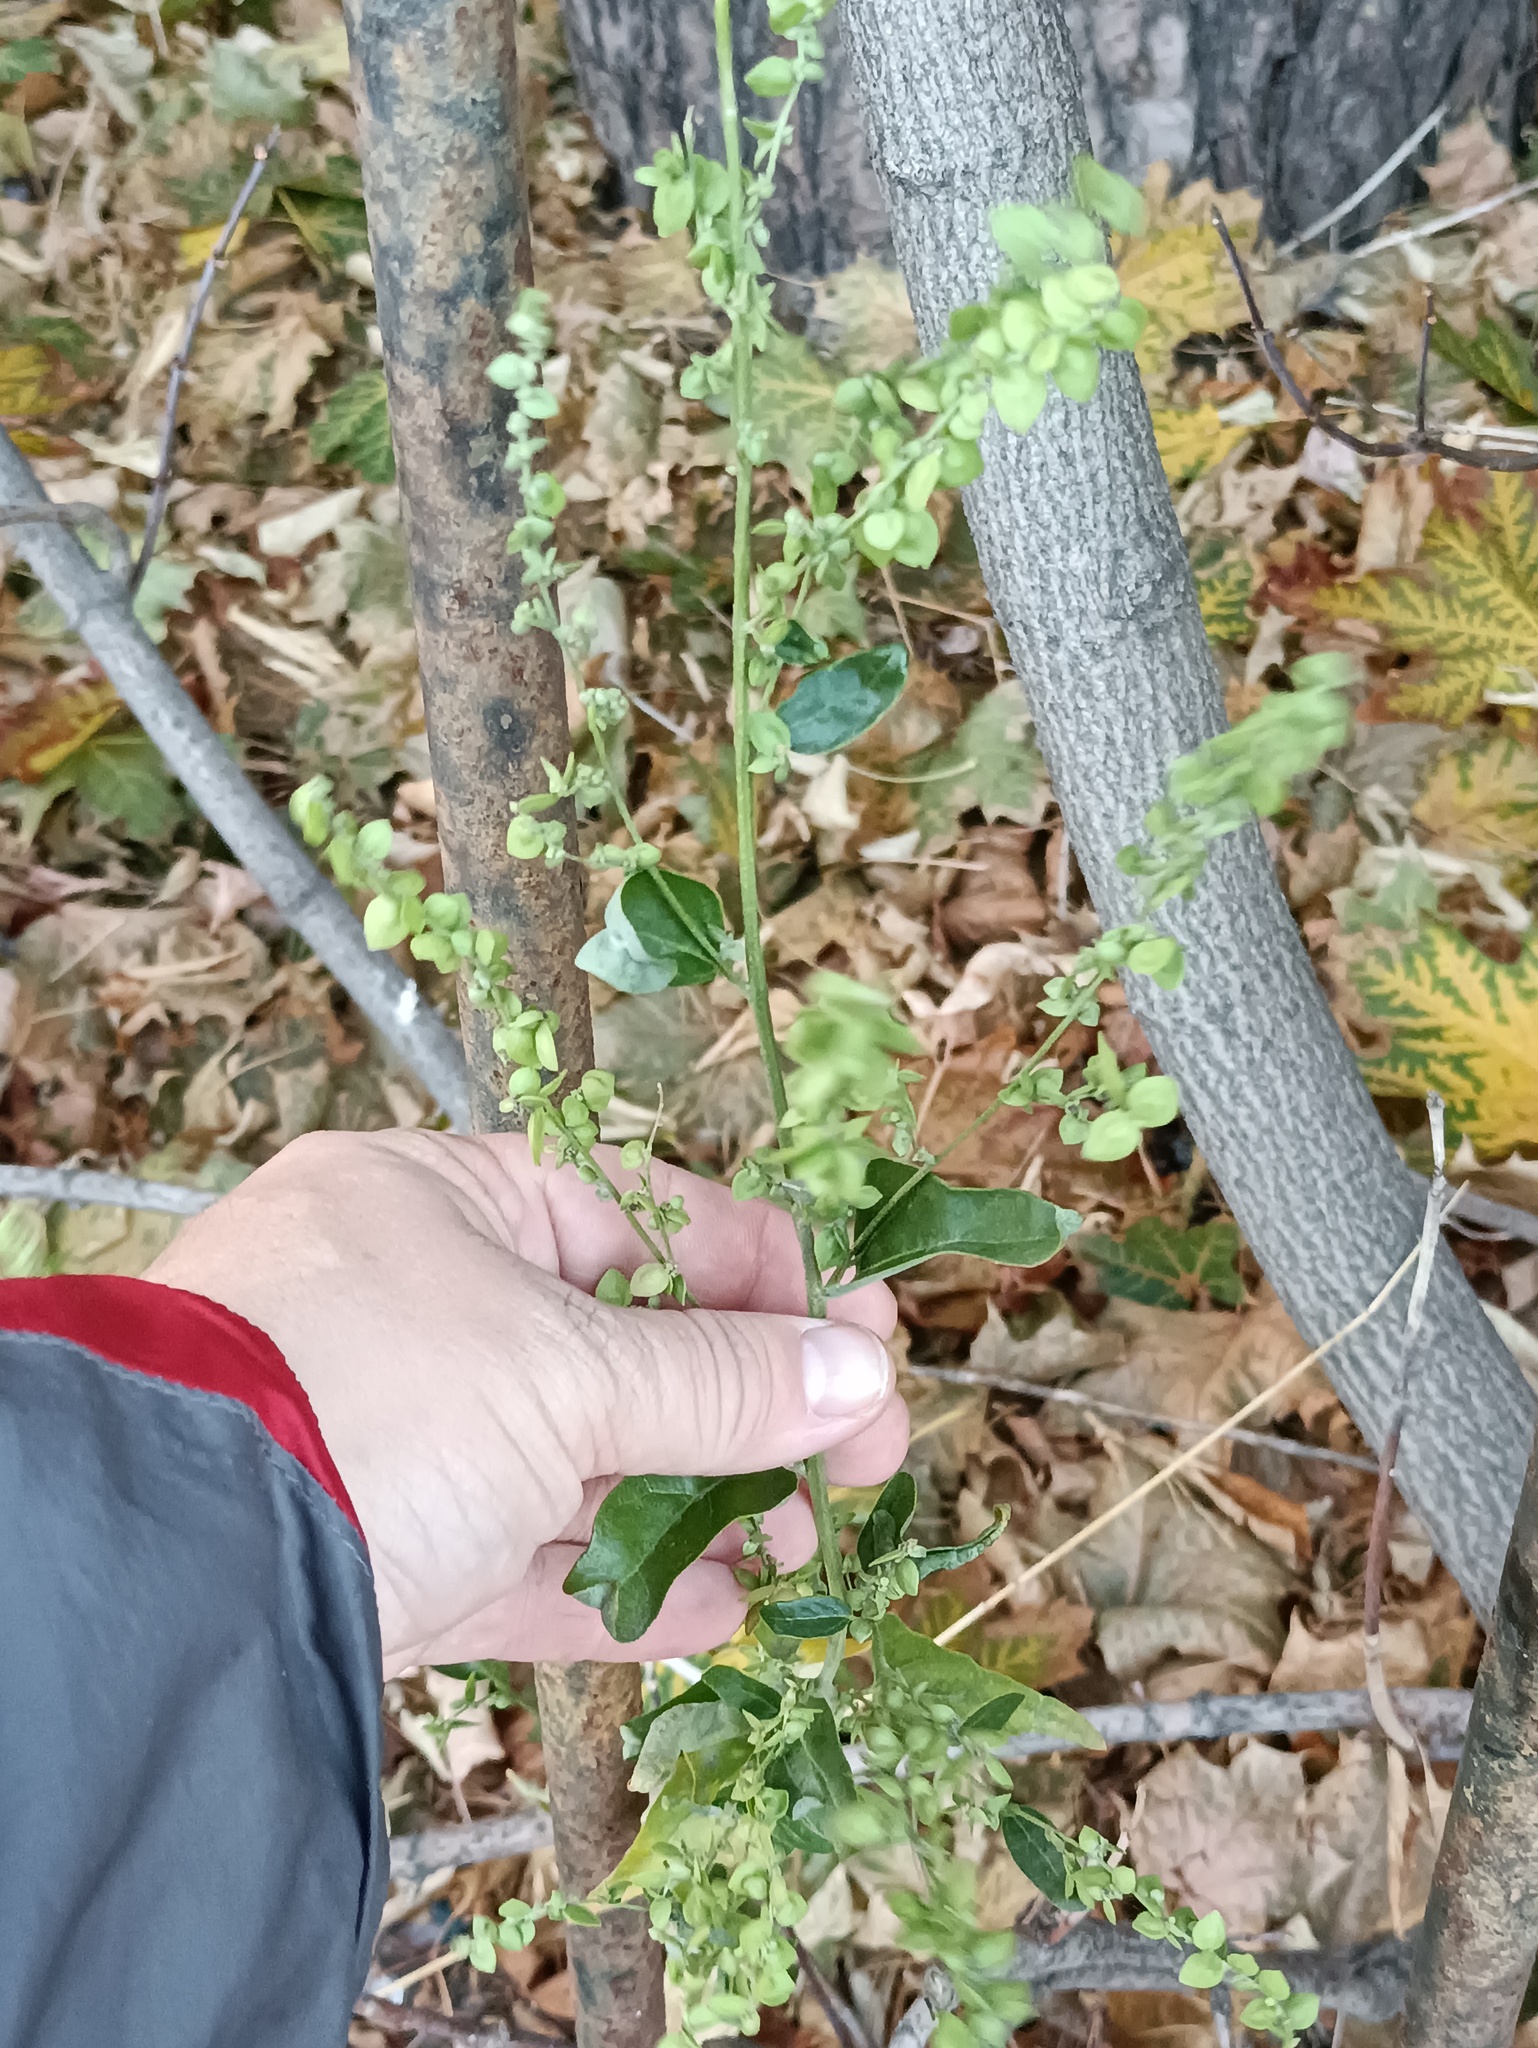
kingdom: Plantae
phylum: Tracheophyta
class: Magnoliopsida
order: Caryophyllales
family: Amaranthaceae
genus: Atriplex
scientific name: Atriplex sagittata
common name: Purple orache
